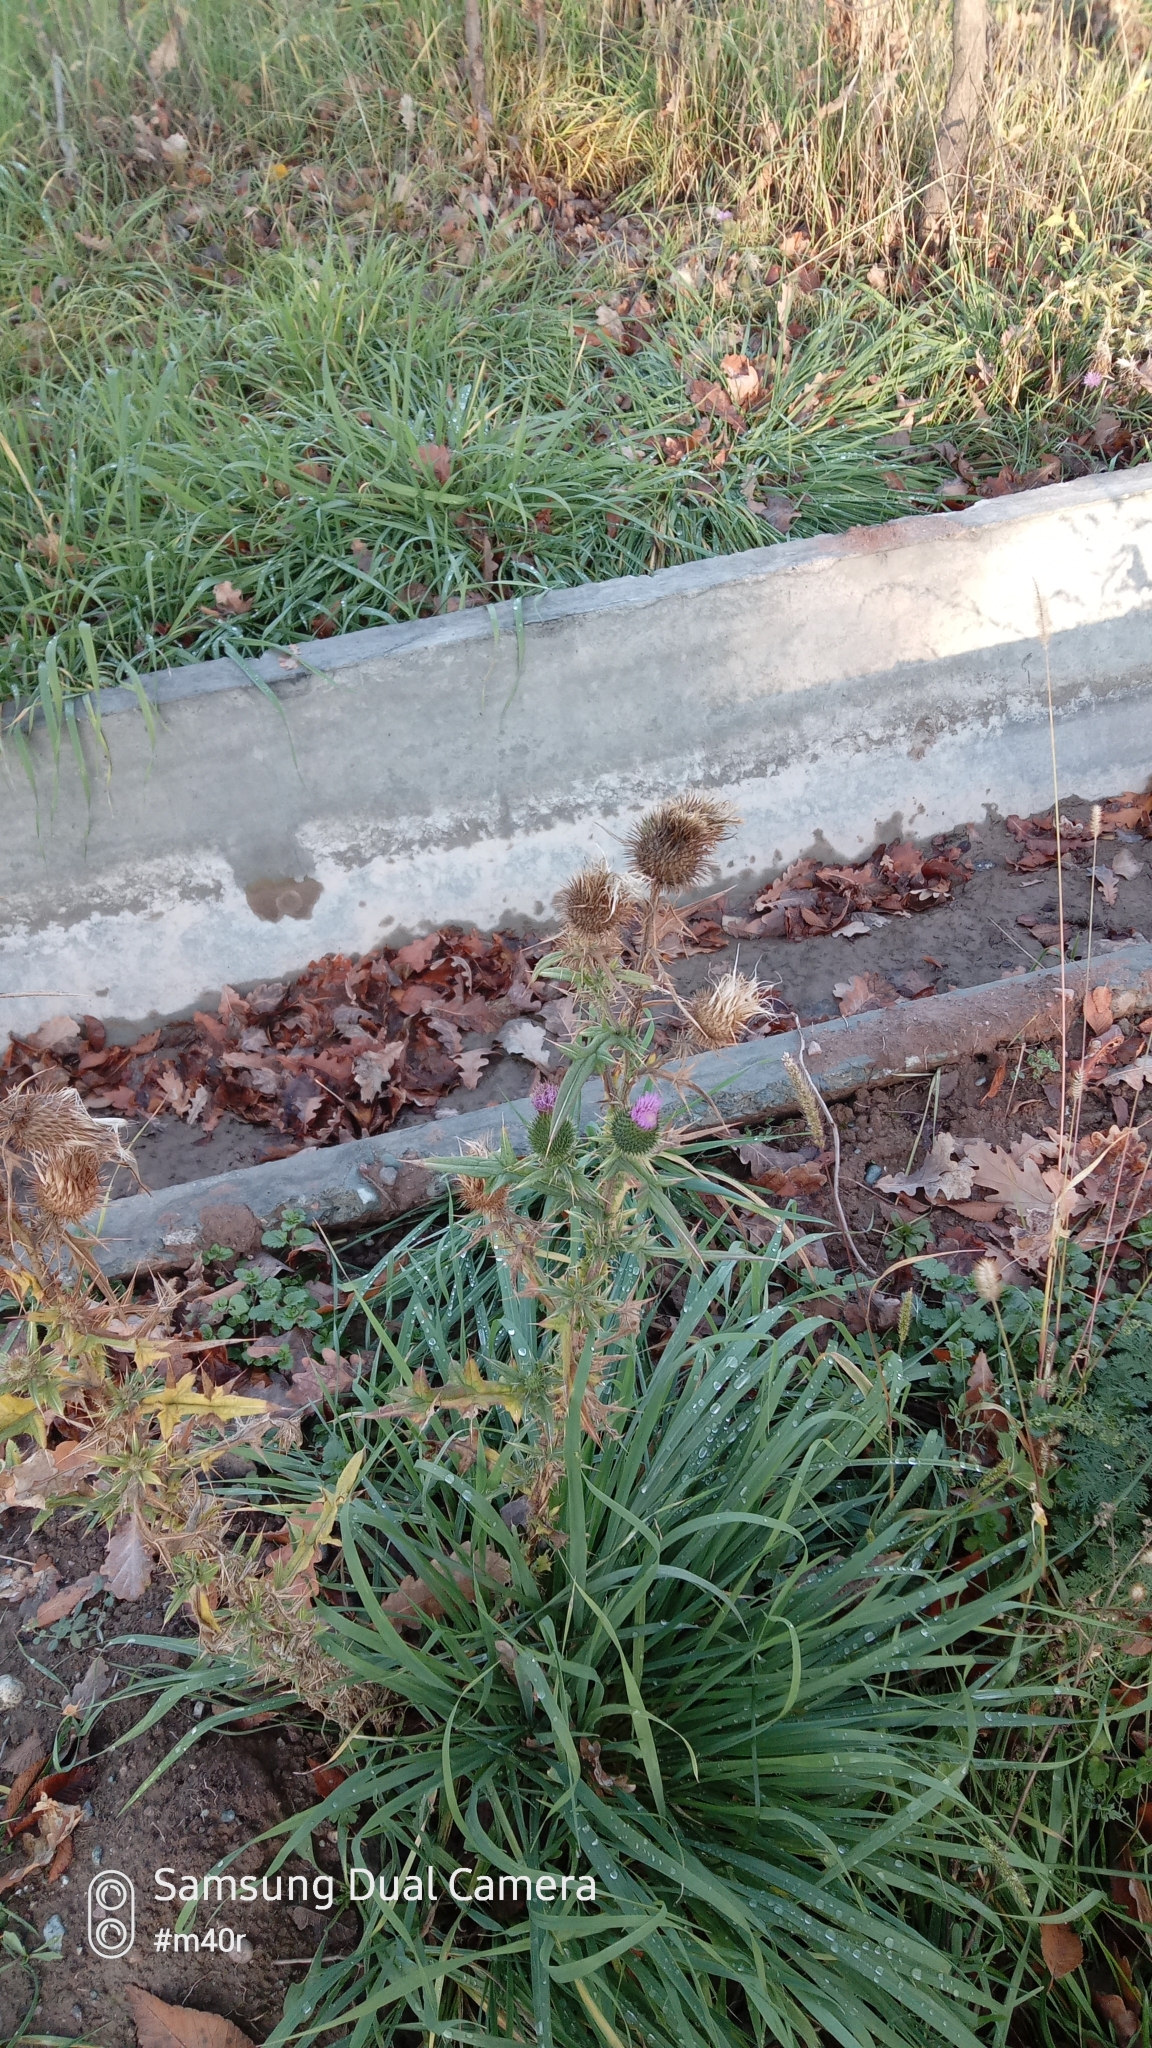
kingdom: Plantae
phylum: Tracheophyta
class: Magnoliopsida
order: Asterales
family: Asteraceae
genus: Cirsium
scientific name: Cirsium vulgare
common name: Bull thistle
